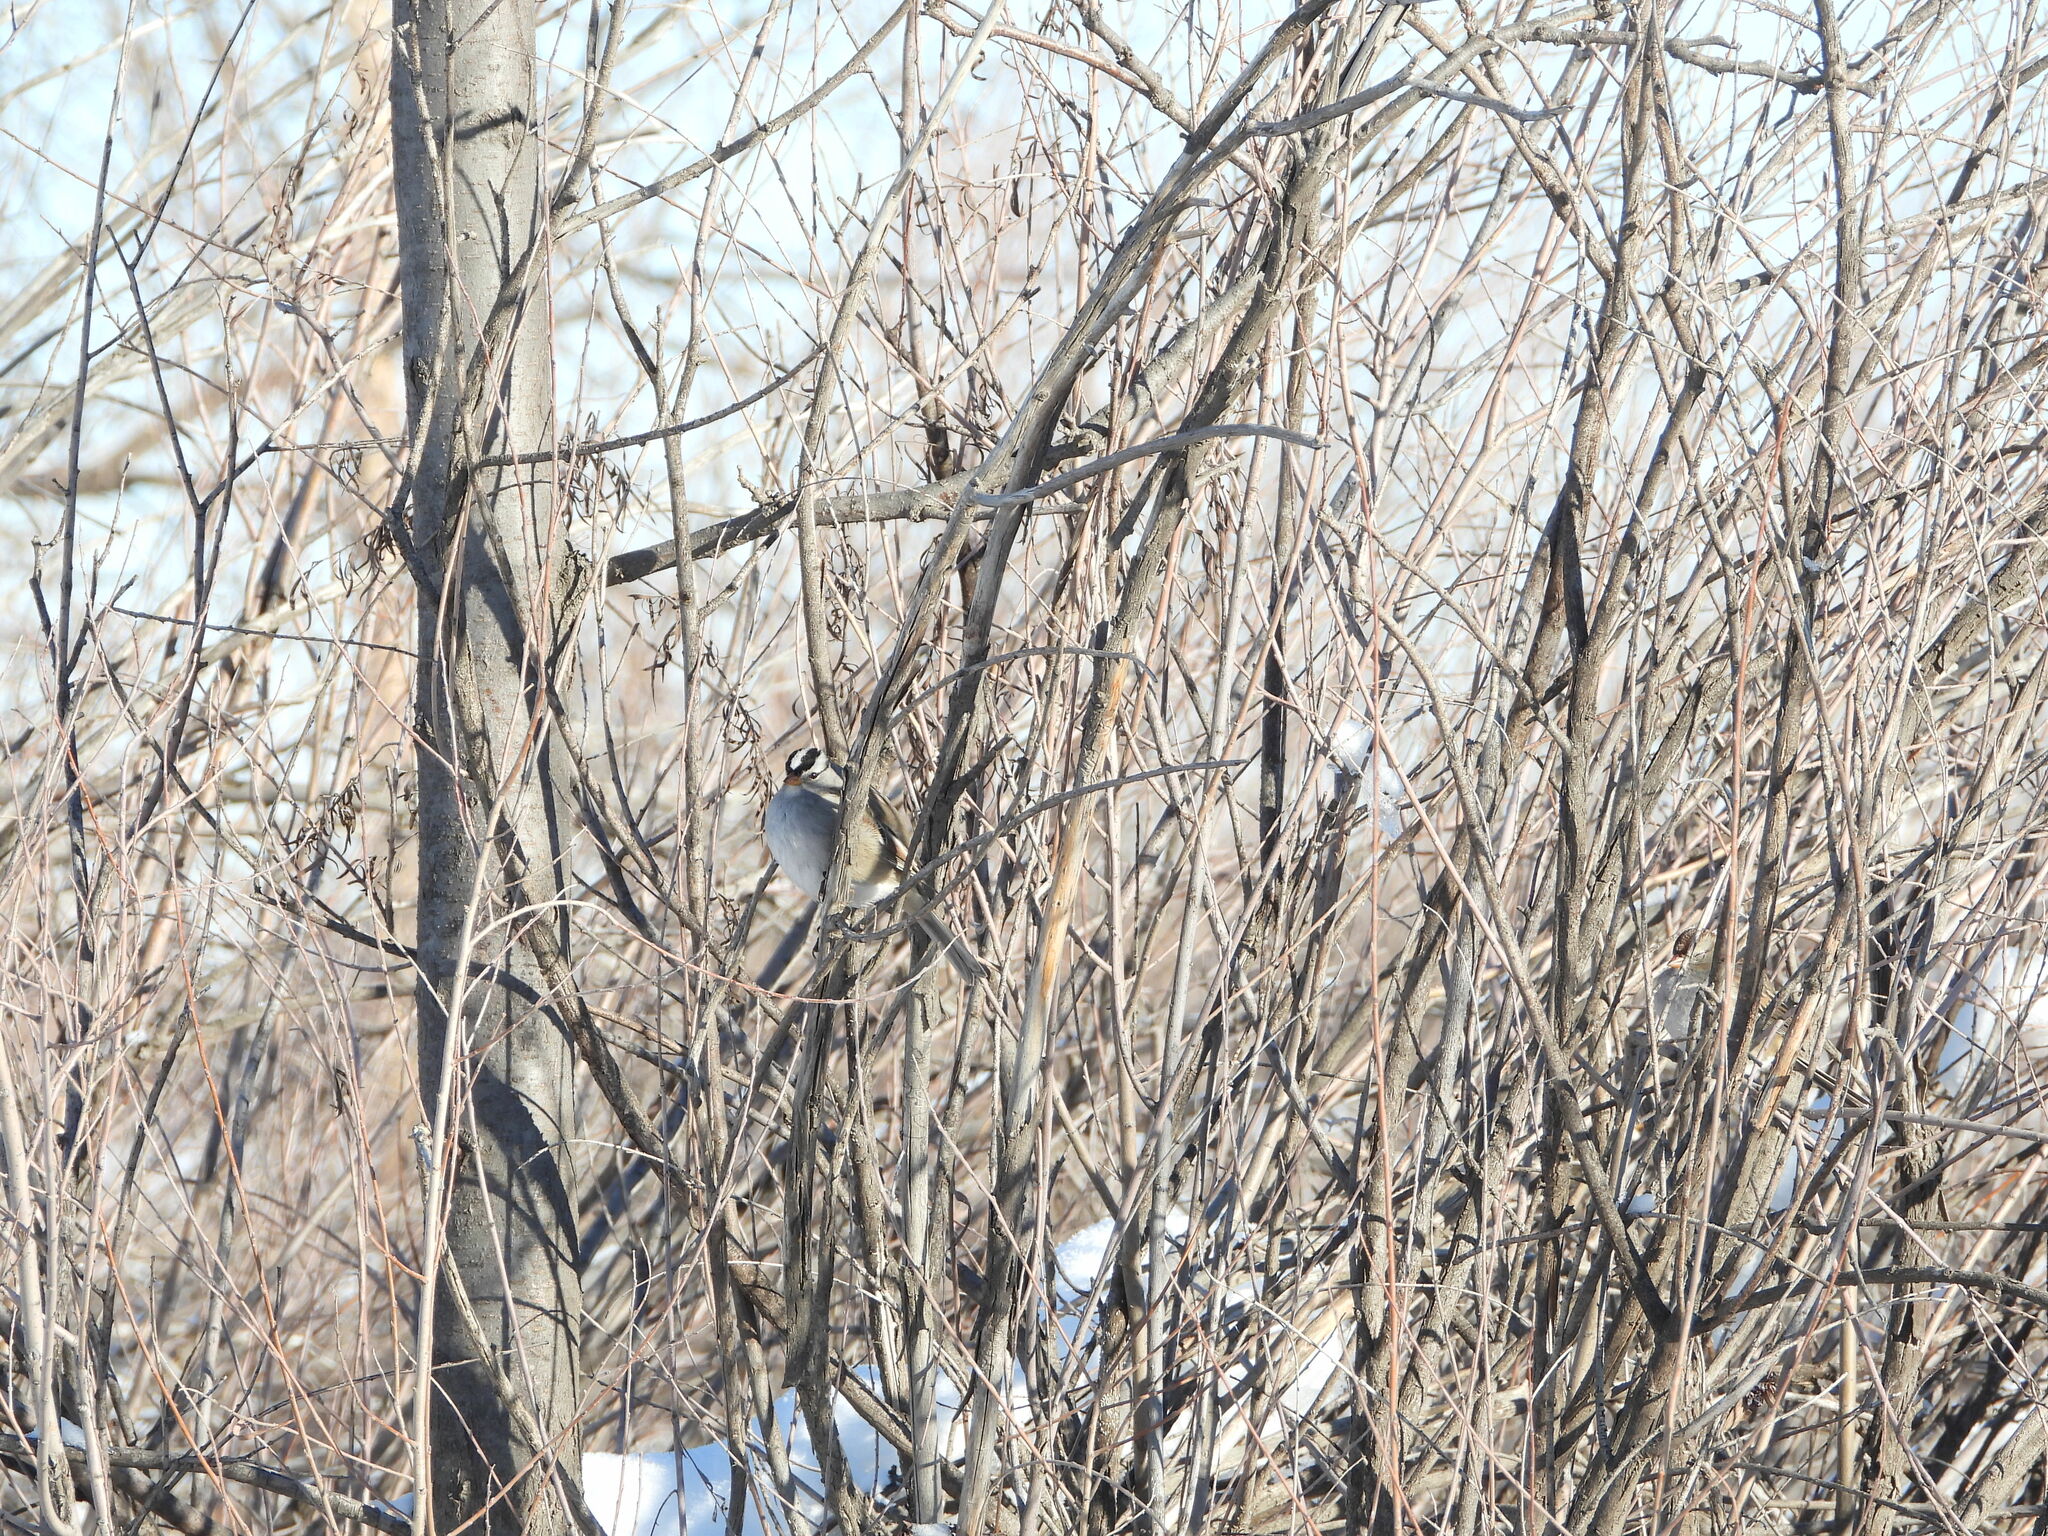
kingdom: Animalia
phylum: Chordata
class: Aves
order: Passeriformes
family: Passerellidae
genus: Zonotrichia
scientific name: Zonotrichia leucophrys
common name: White-crowned sparrow
